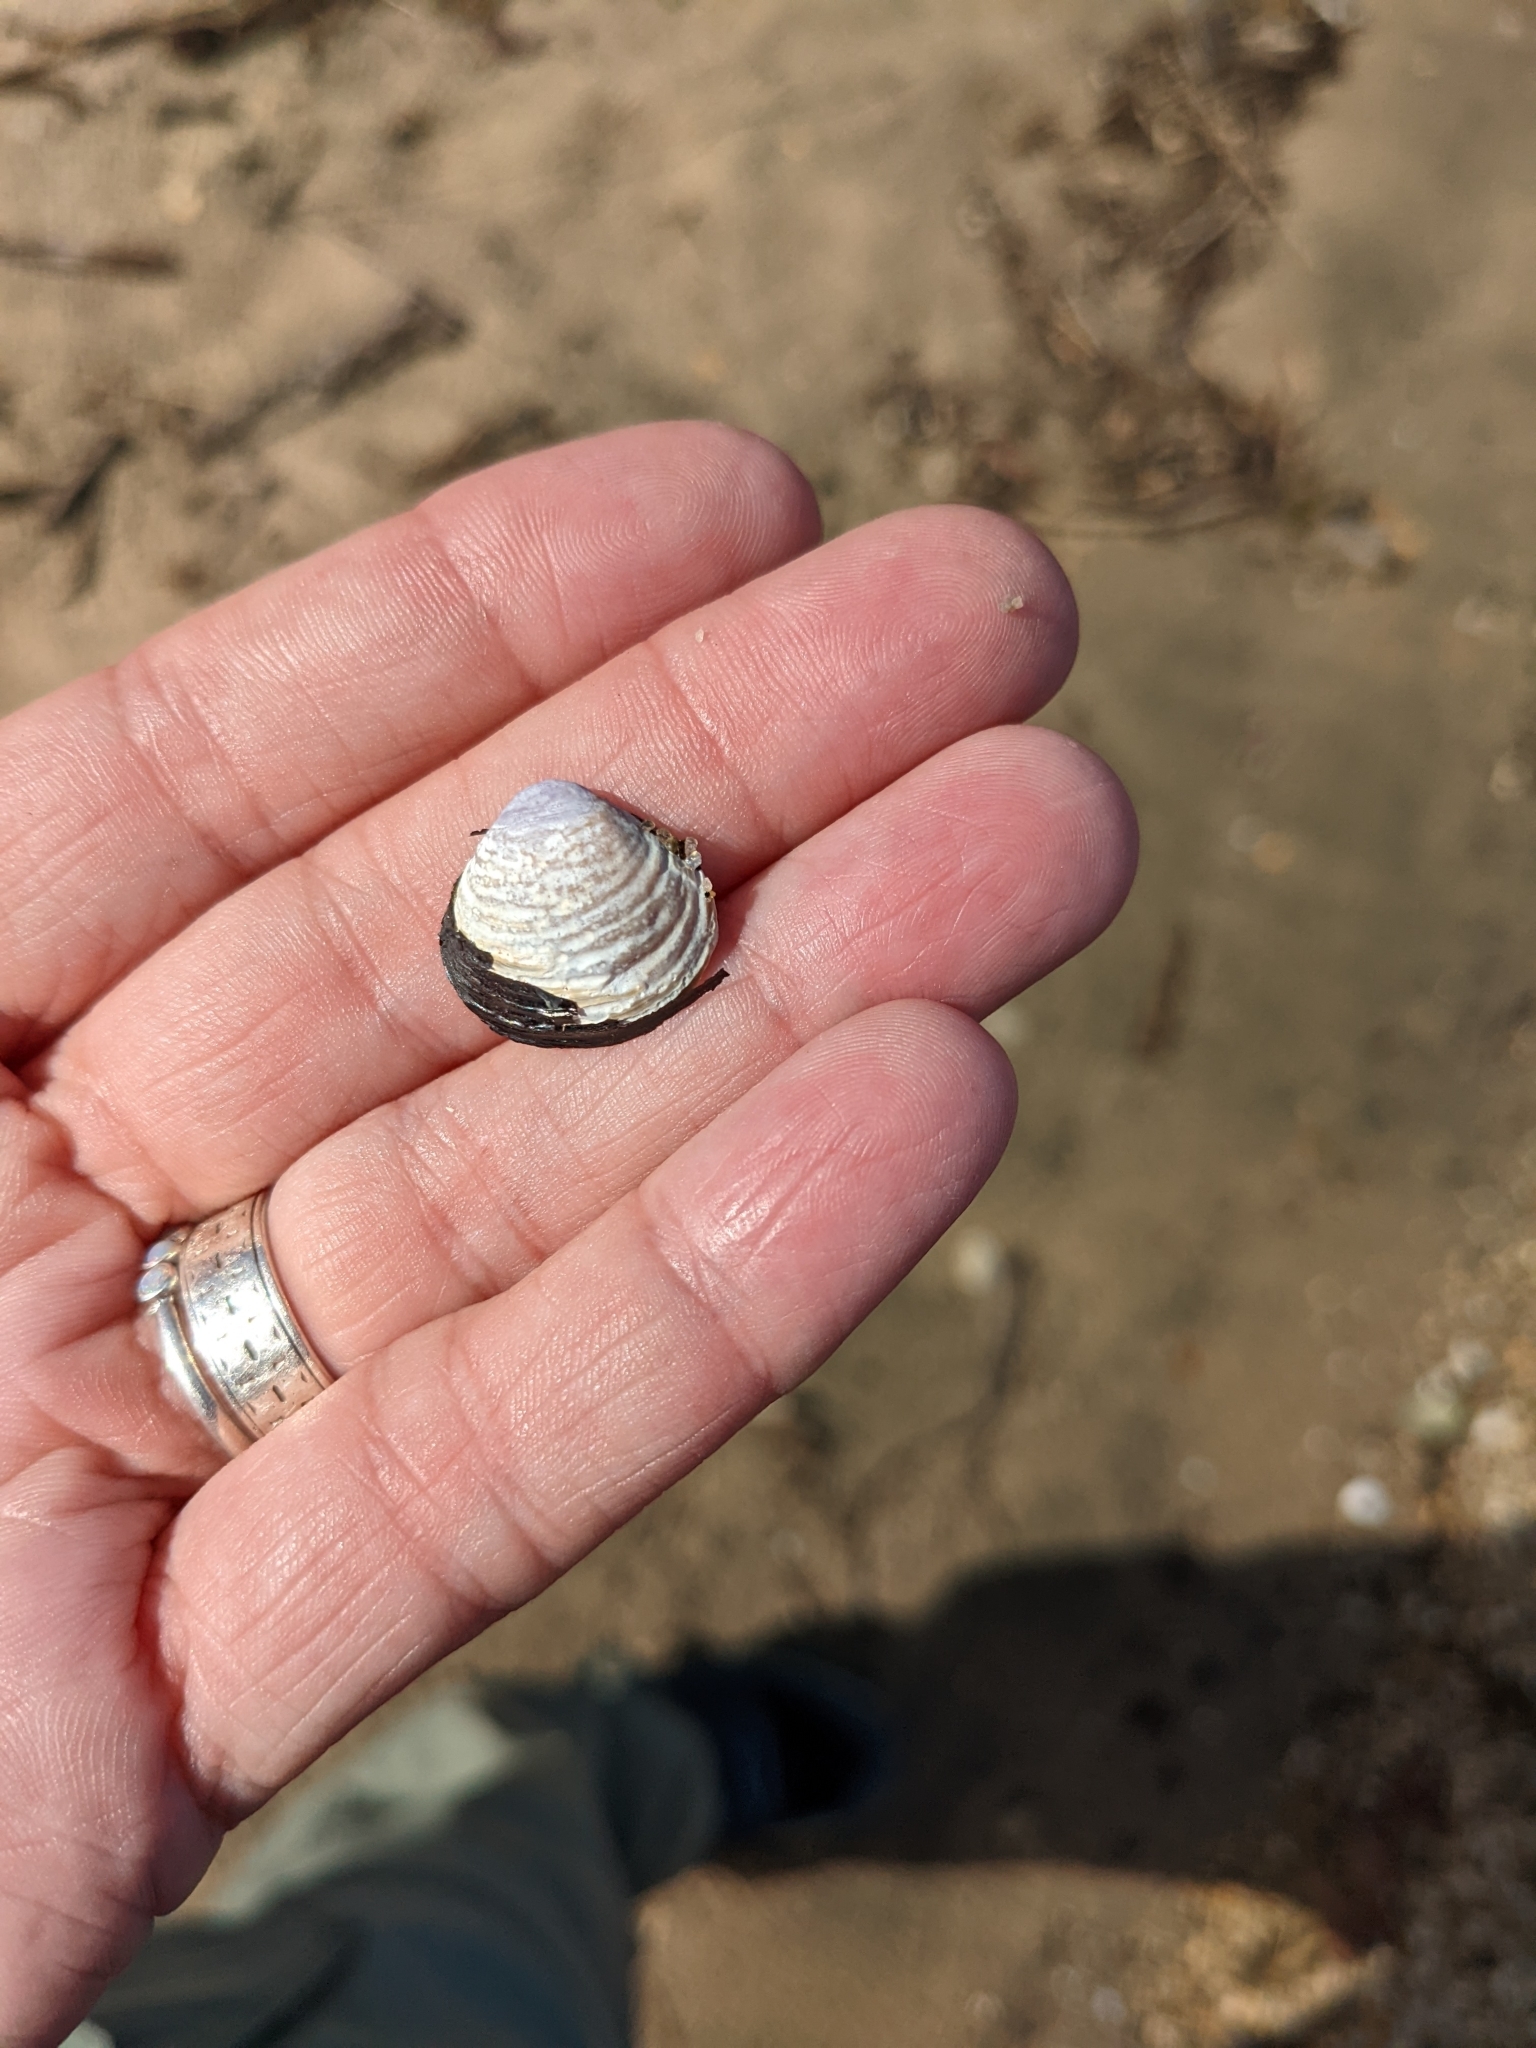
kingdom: Animalia
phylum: Mollusca
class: Bivalvia
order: Venerida
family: Cyrenidae
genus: Corbicula
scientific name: Corbicula fluminea
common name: Asian clam
